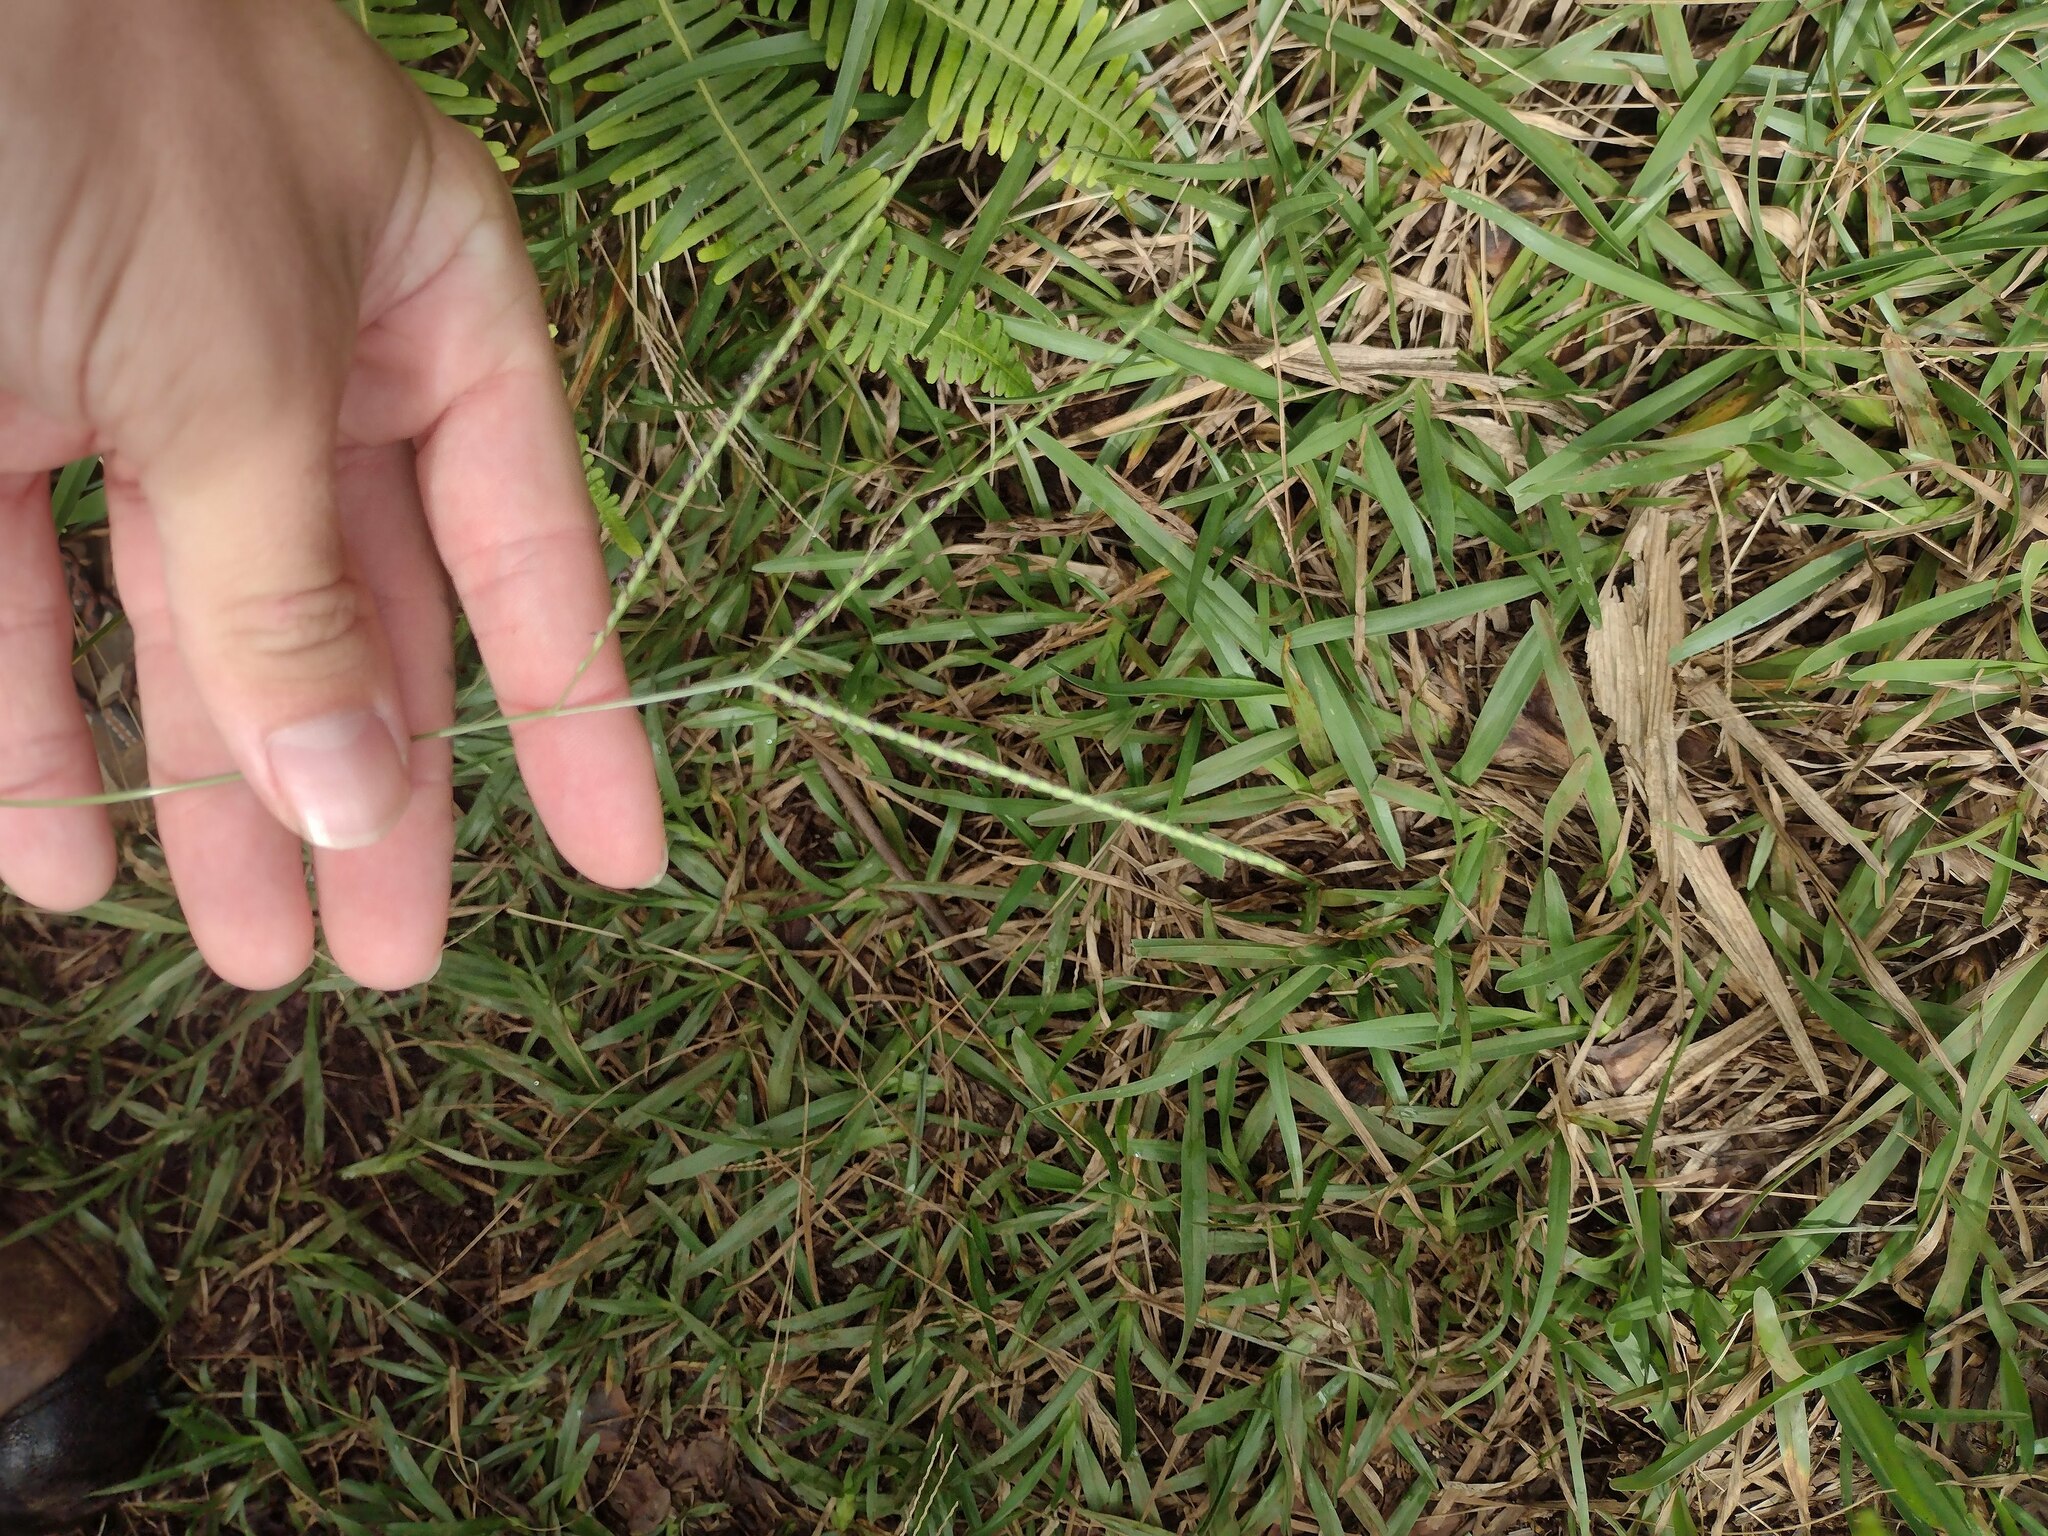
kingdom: Plantae
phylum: Tracheophyta
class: Liliopsida
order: Poales
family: Poaceae
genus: Axonopus
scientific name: Axonopus fissifolius
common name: Common carpetgrass
